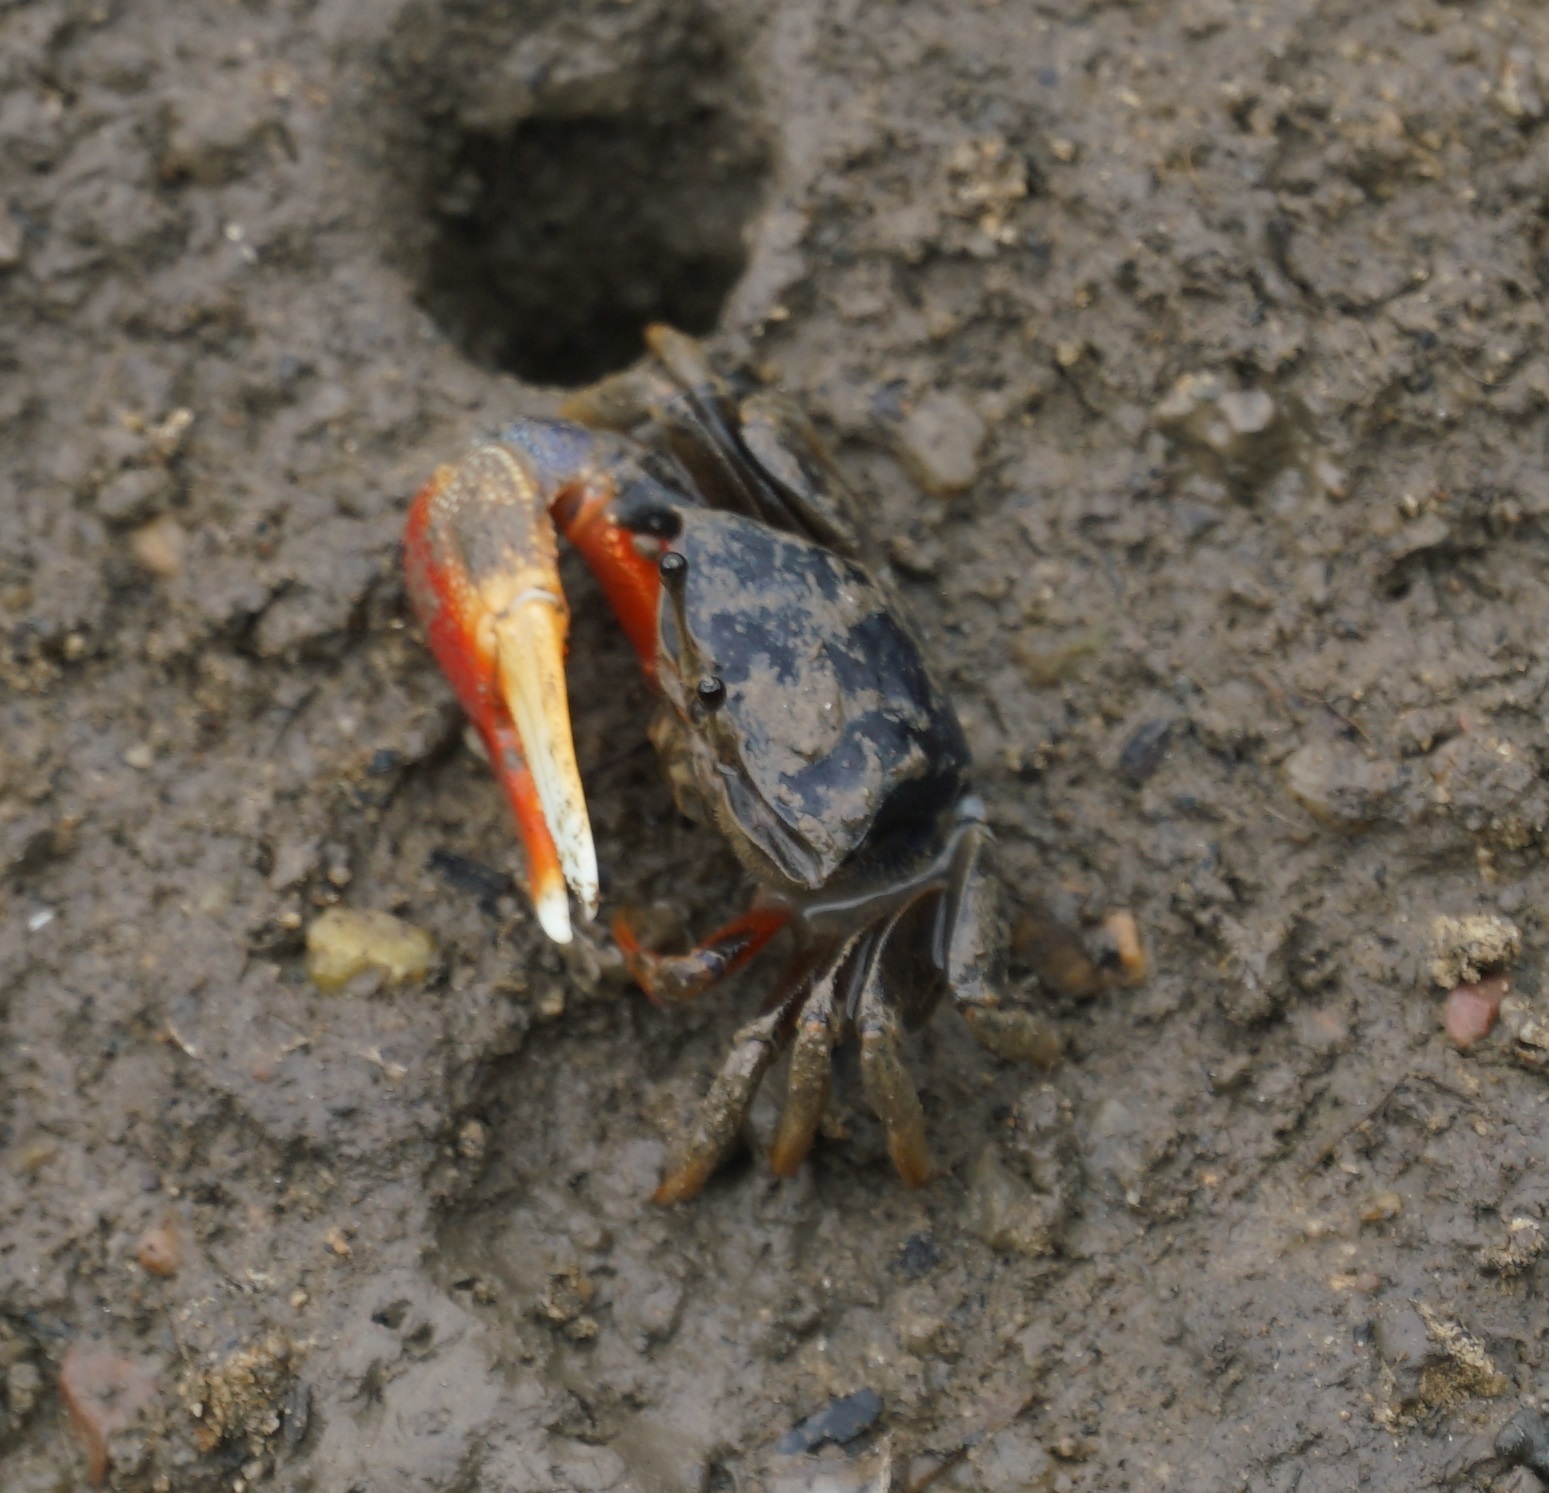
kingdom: Animalia
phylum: Arthropoda
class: Malacostraca
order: Decapoda
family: Ocypodidae
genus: Tubuca
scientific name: Tubuca dussumieri
